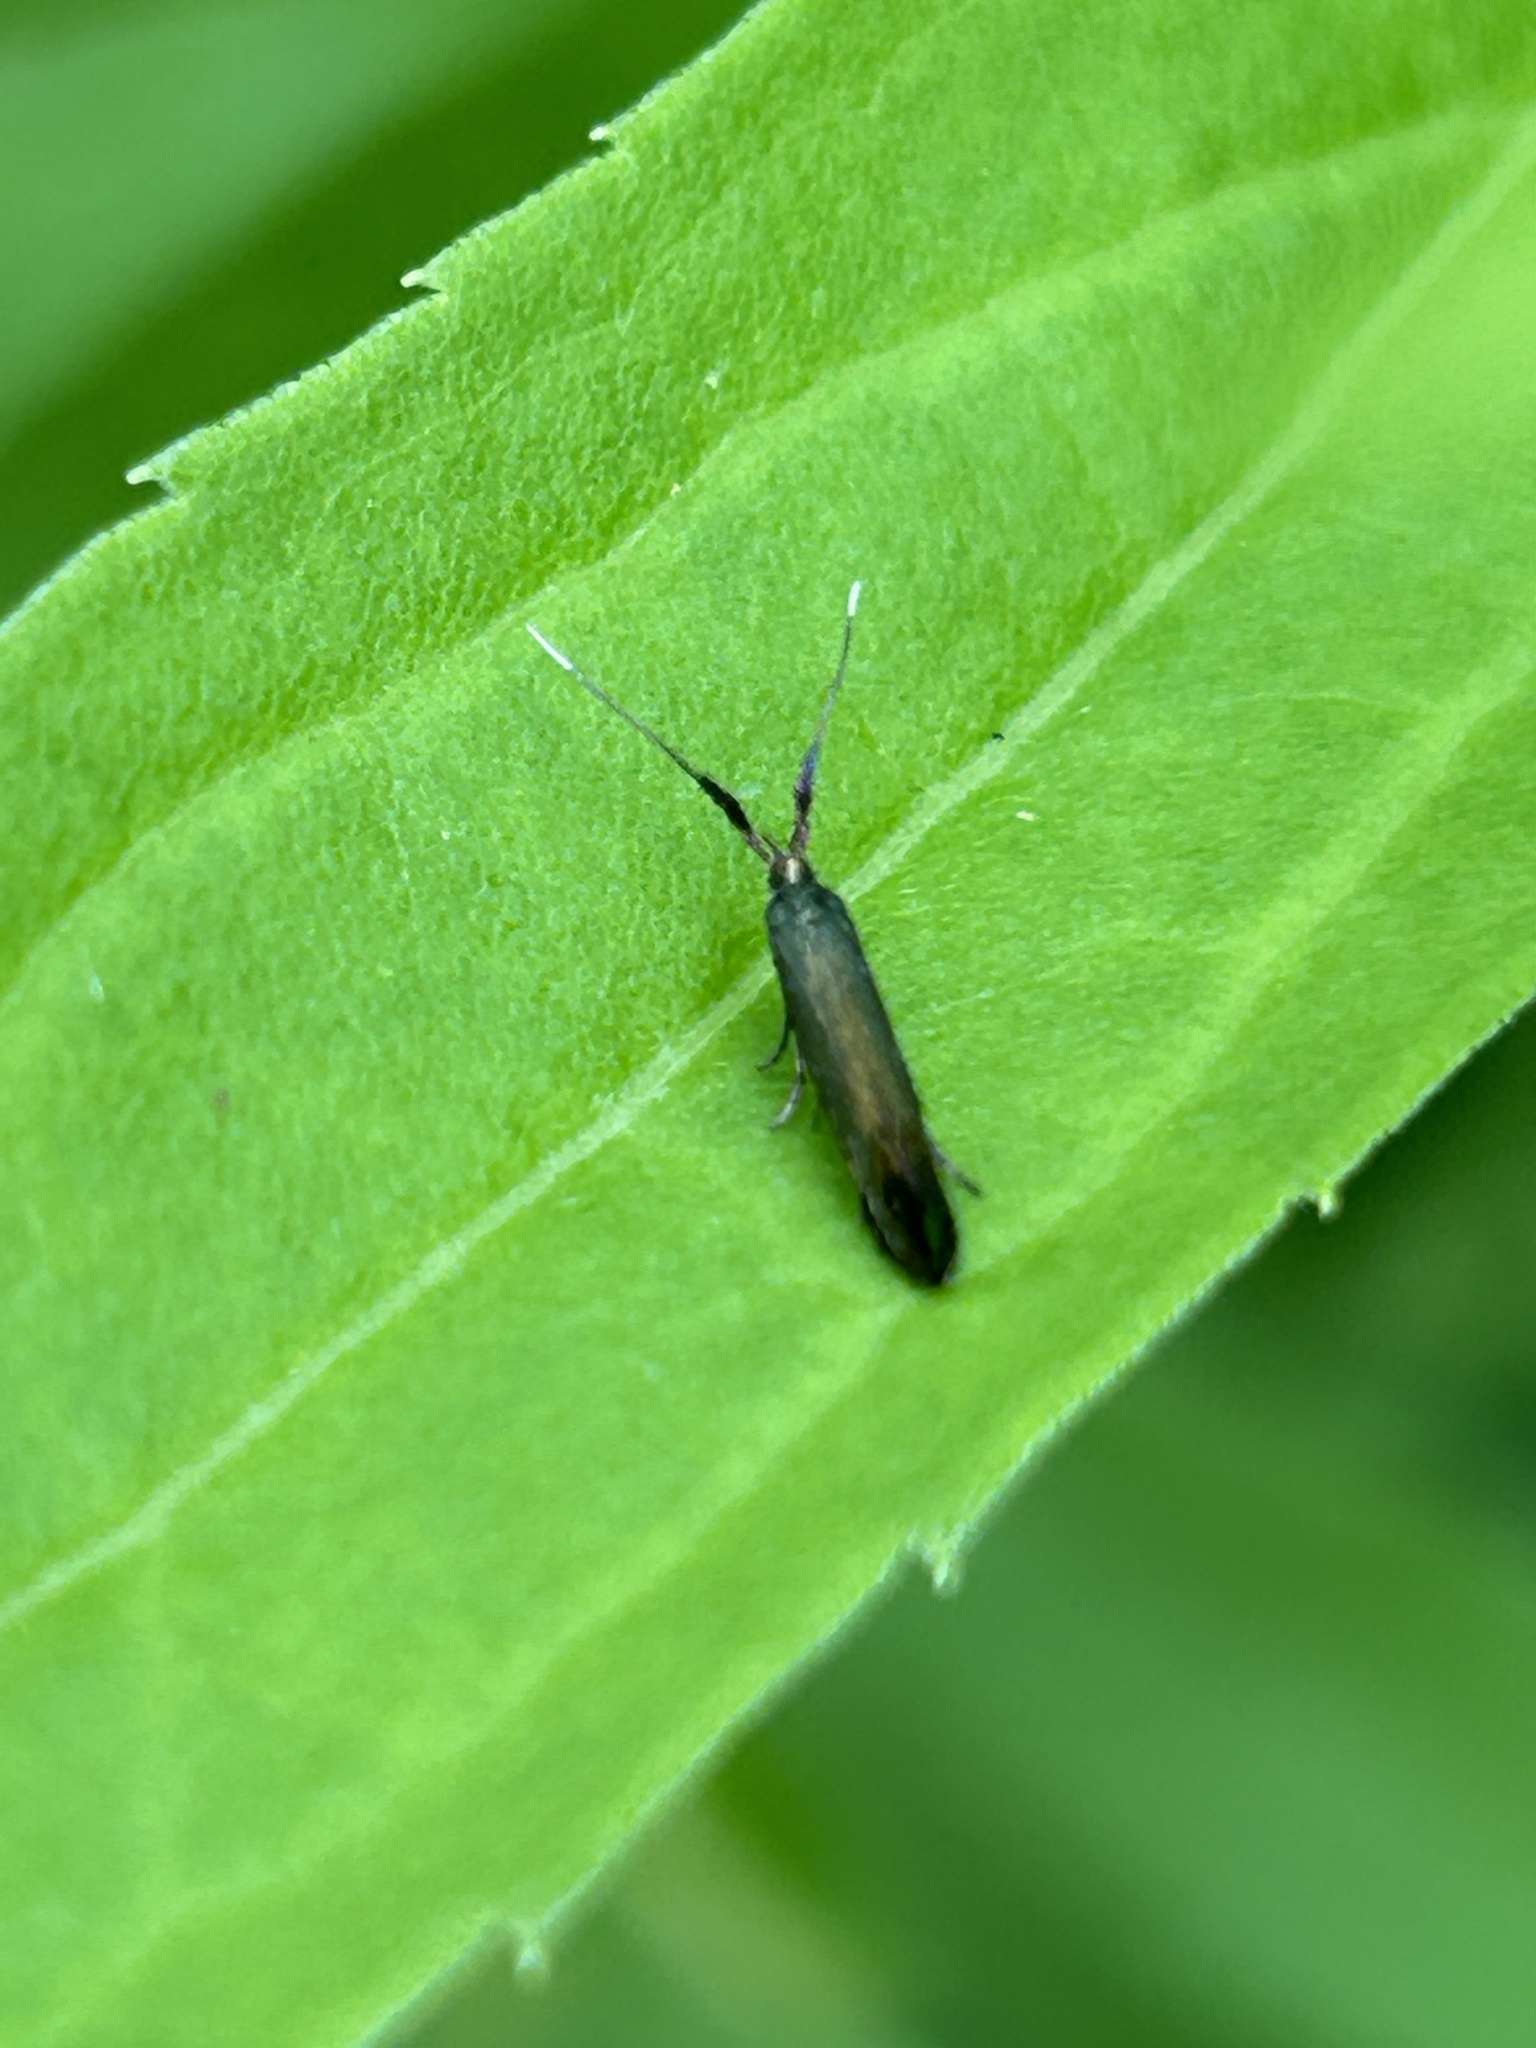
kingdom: Animalia
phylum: Arthropoda
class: Insecta
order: Lepidoptera
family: Coleophoridae
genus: Coleophora
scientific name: Coleophora mayrella
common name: Meadow case-bearer
